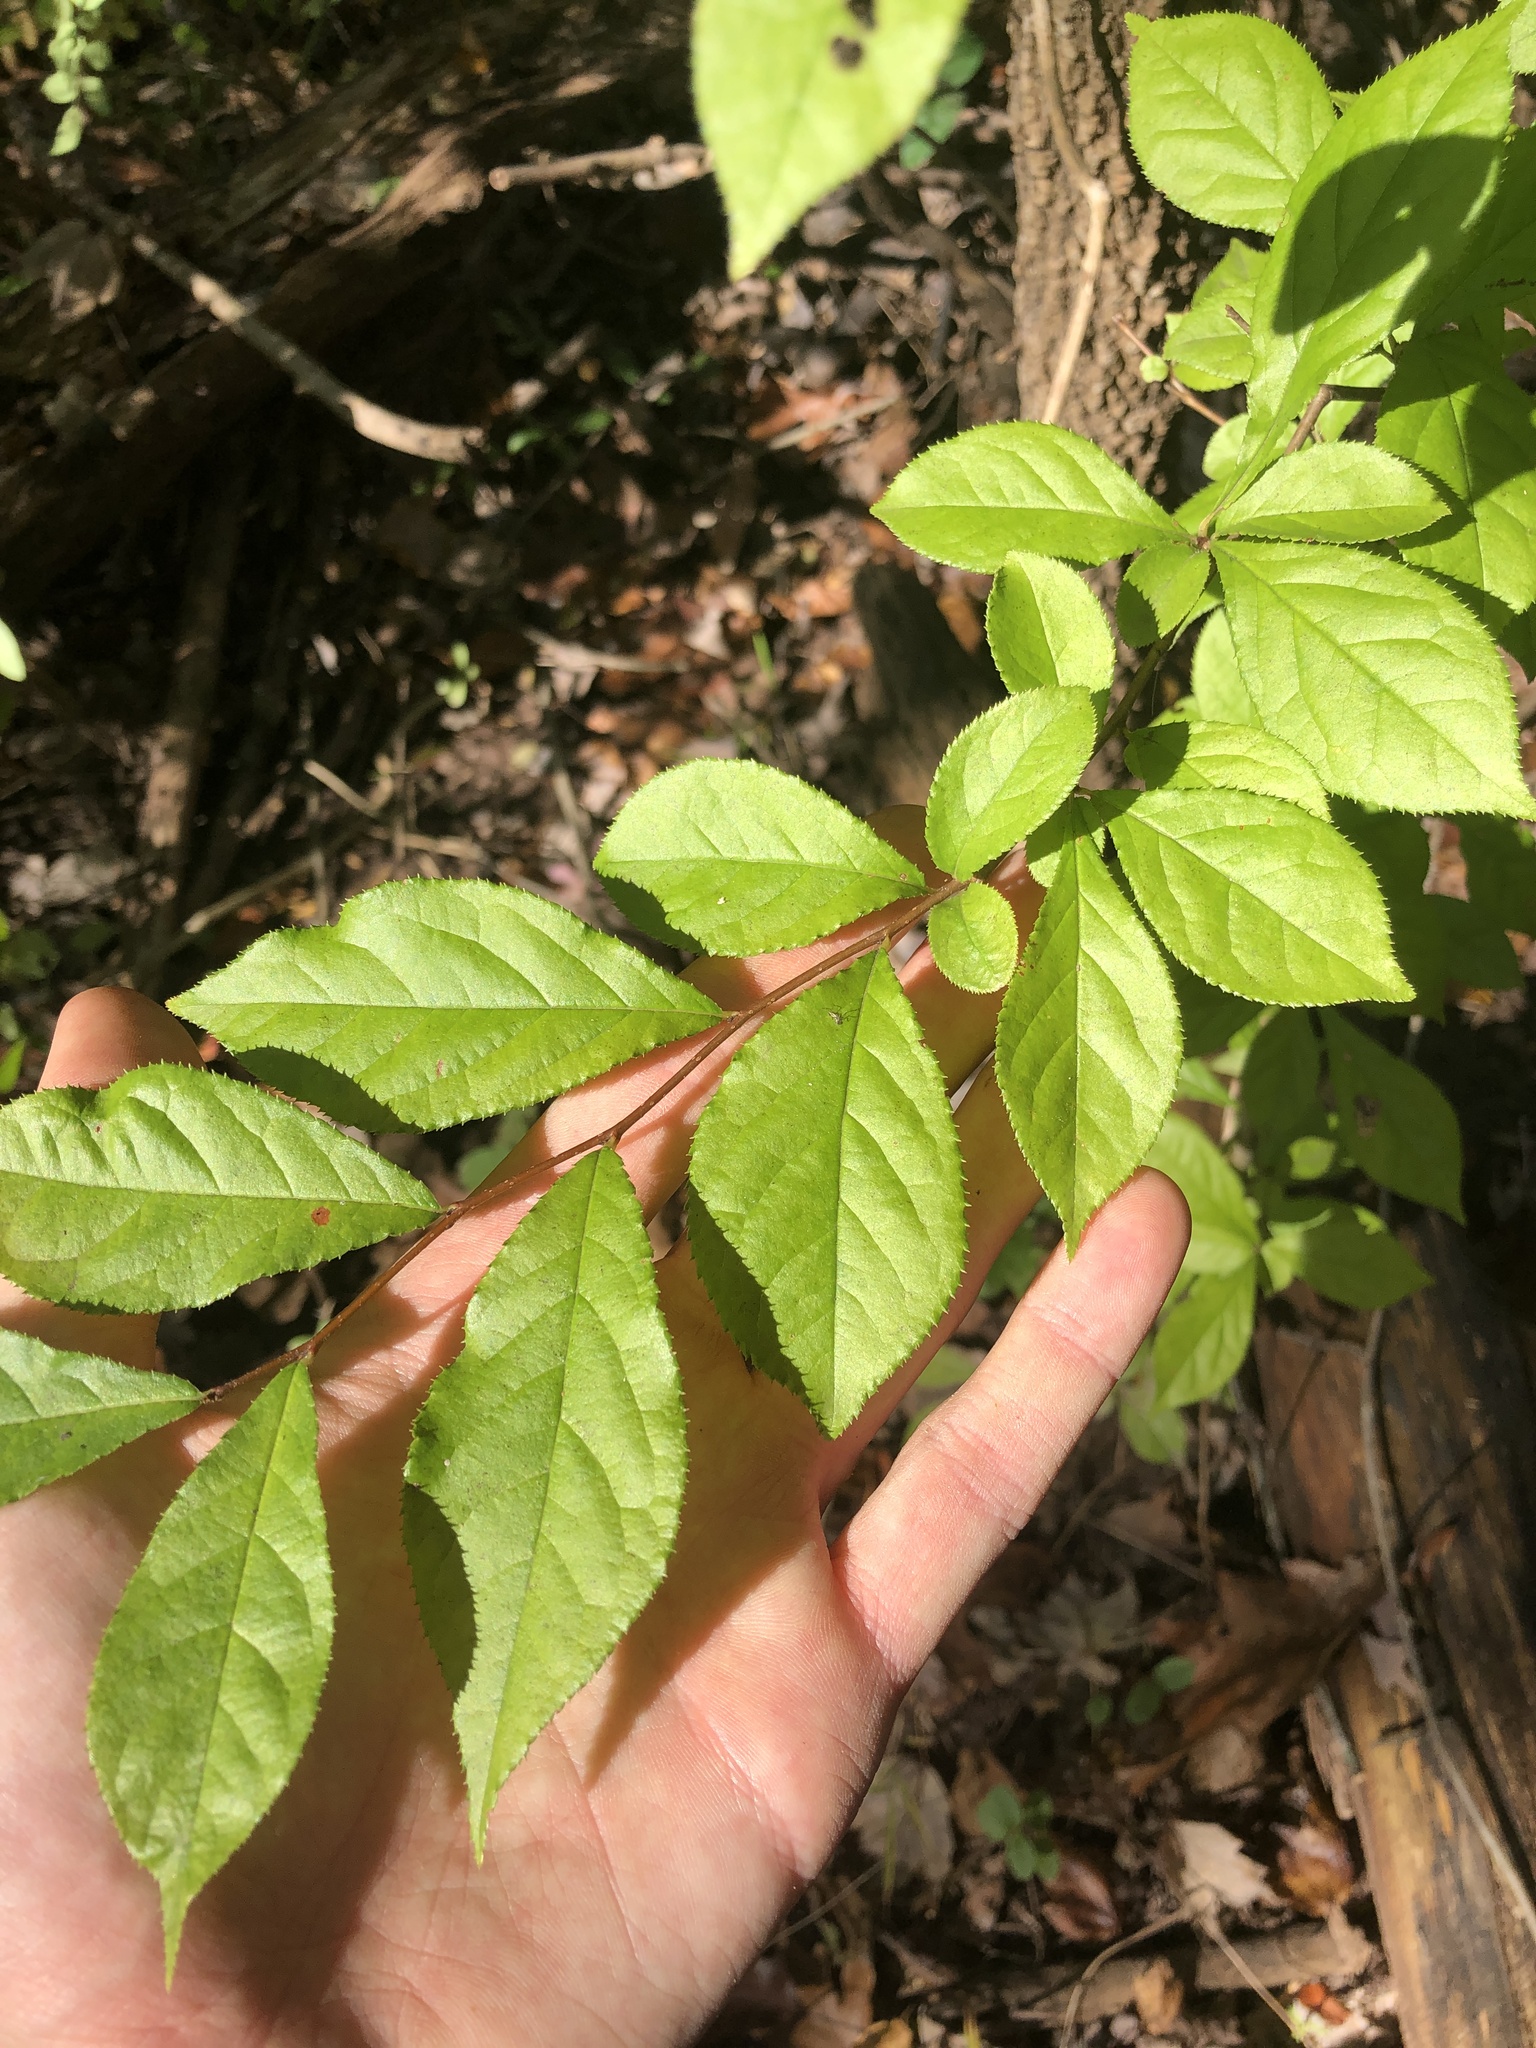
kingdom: Plantae
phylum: Tracheophyta
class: Magnoliopsida
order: Rosales
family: Rosaceae
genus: Pourthiaea
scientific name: Pourthiaea villosa
